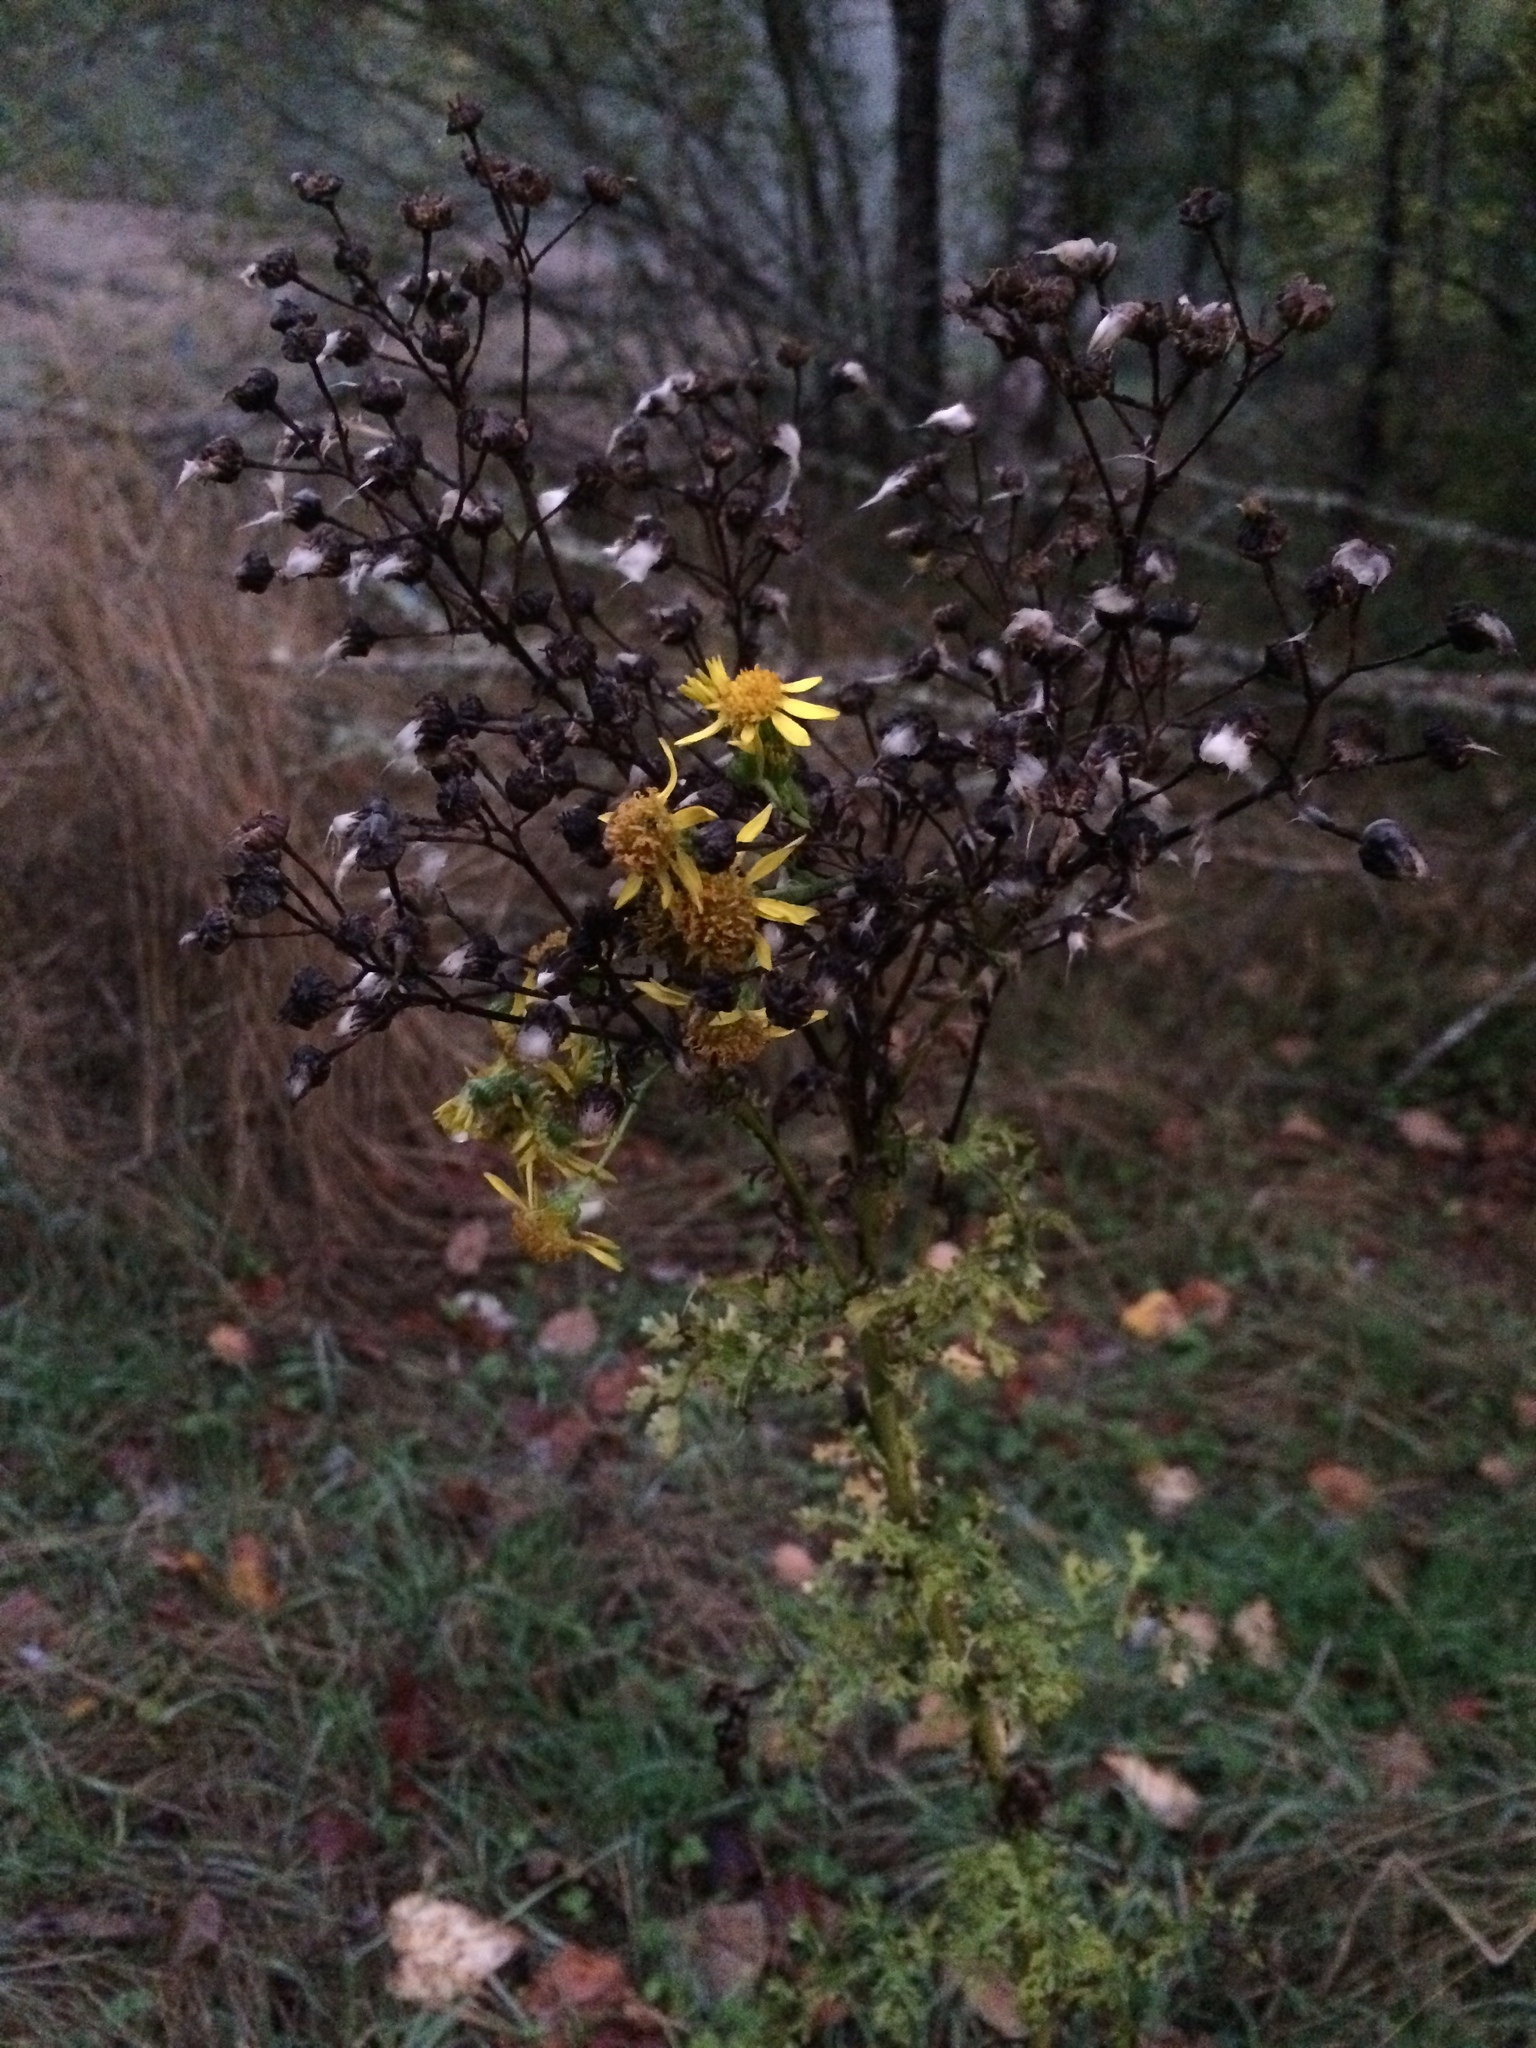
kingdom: Plantae
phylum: Tracheophyta
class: Magnoliopsida
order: Asterales
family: Asteraceae
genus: Jacobaea
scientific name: Jacobaea vulgaris
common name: Stinking willie
